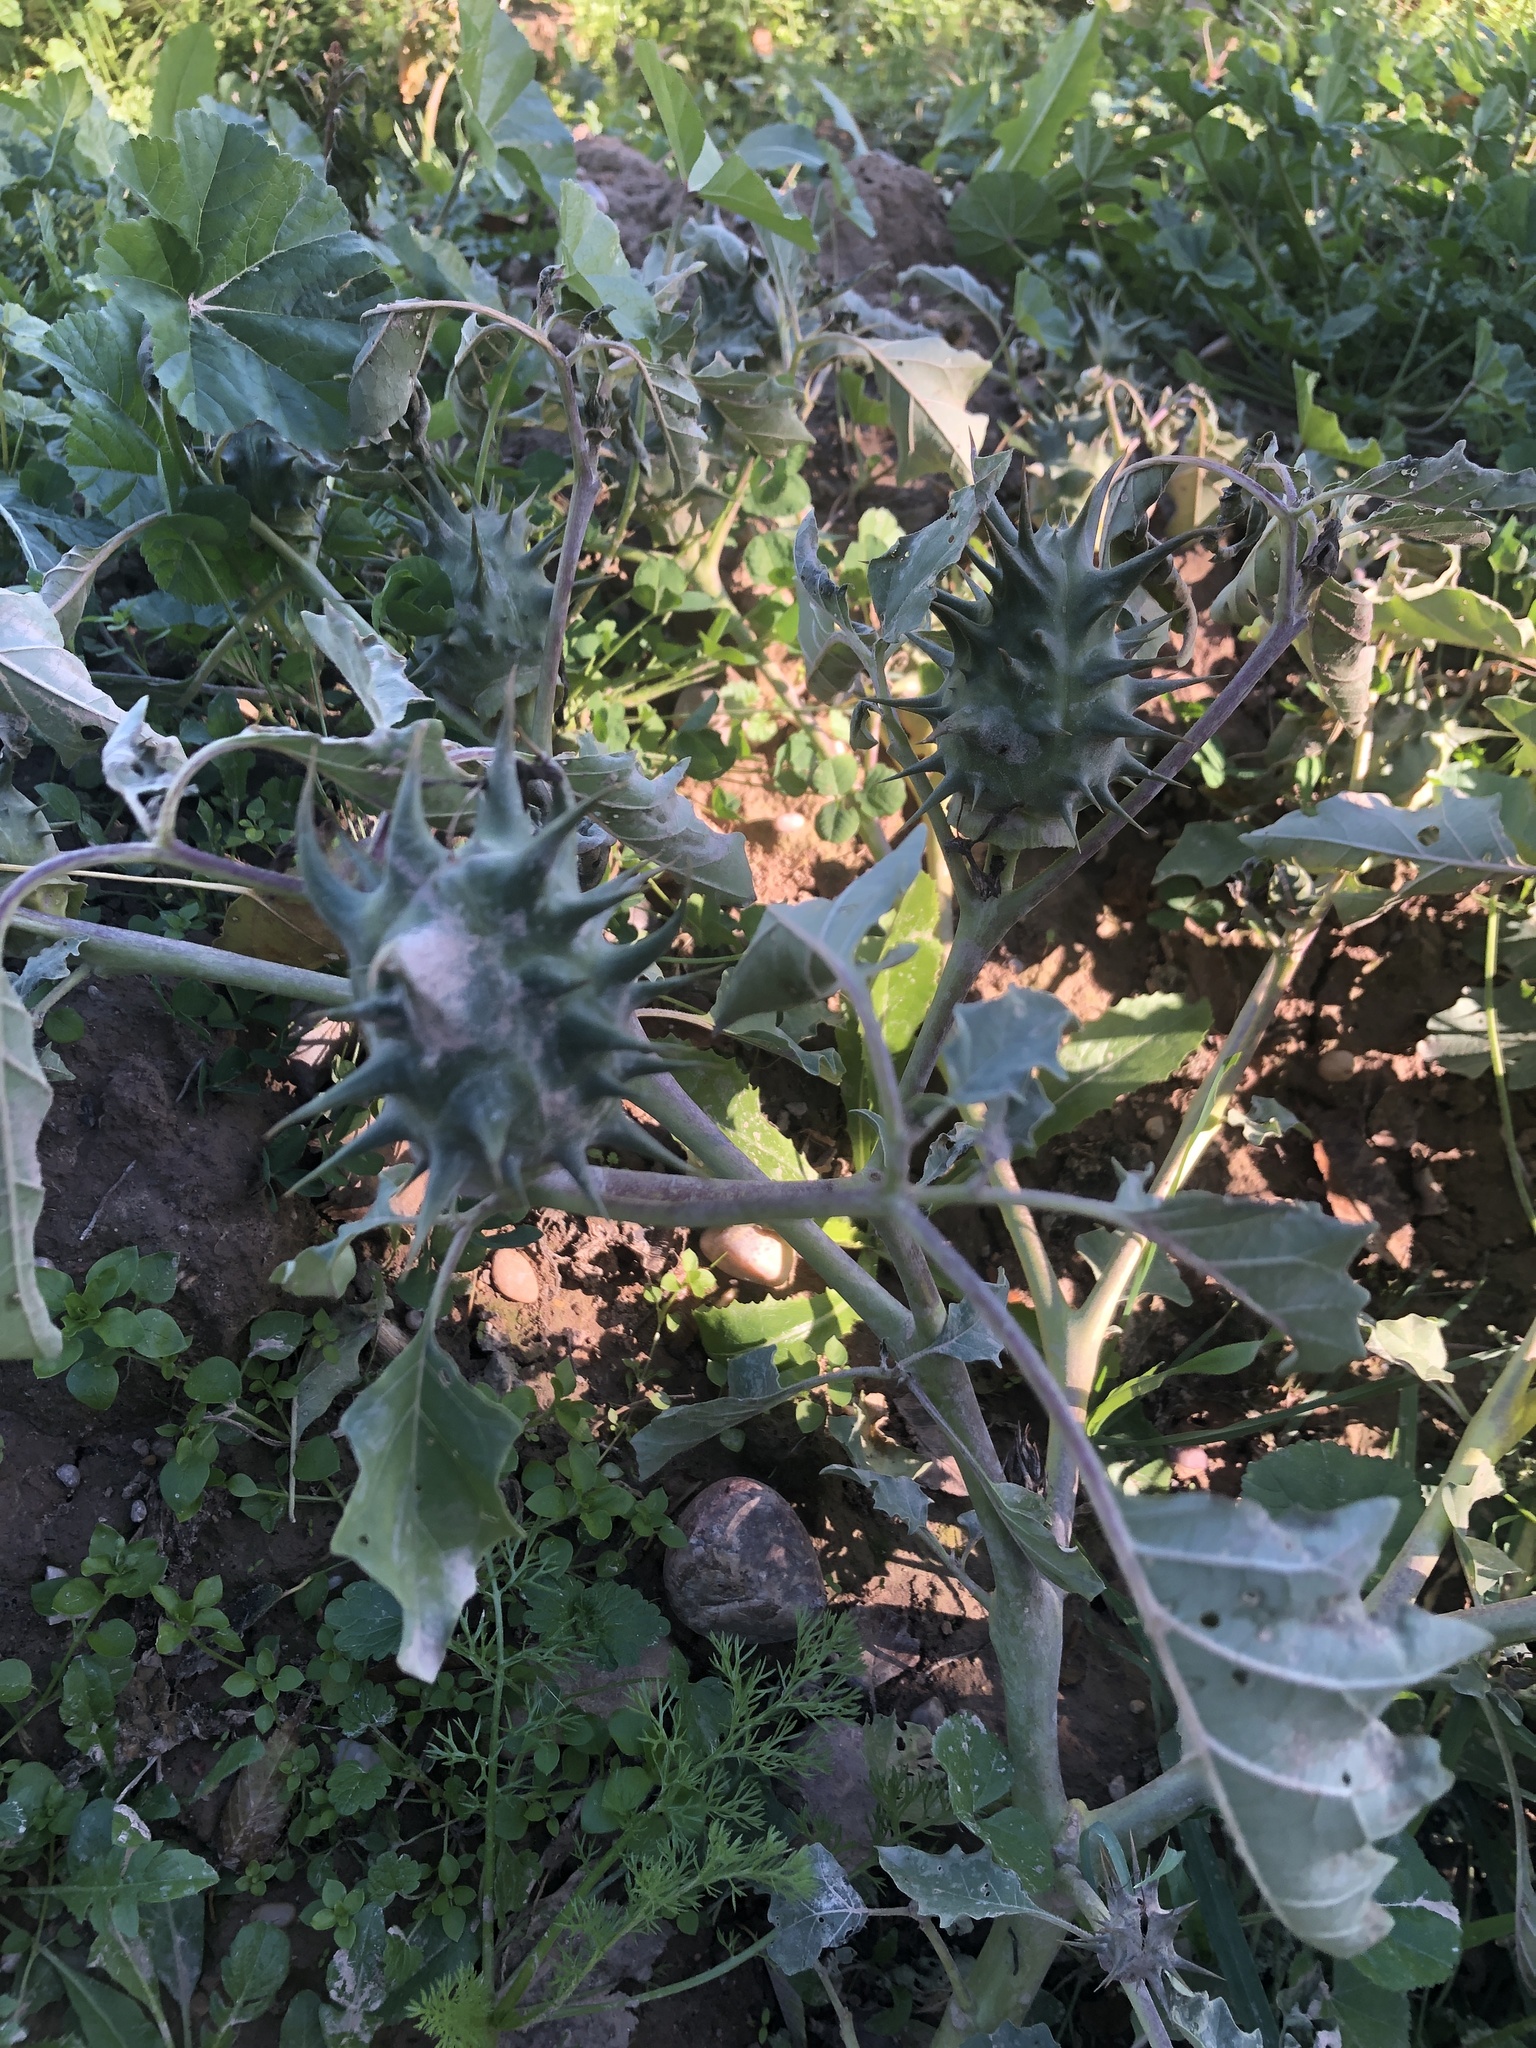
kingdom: Plantae
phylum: Tracheophyta
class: Magnoliopsida
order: Solanales
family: Solanaceae
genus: Datura
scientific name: Datura ferox
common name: Angel's-trumpets
